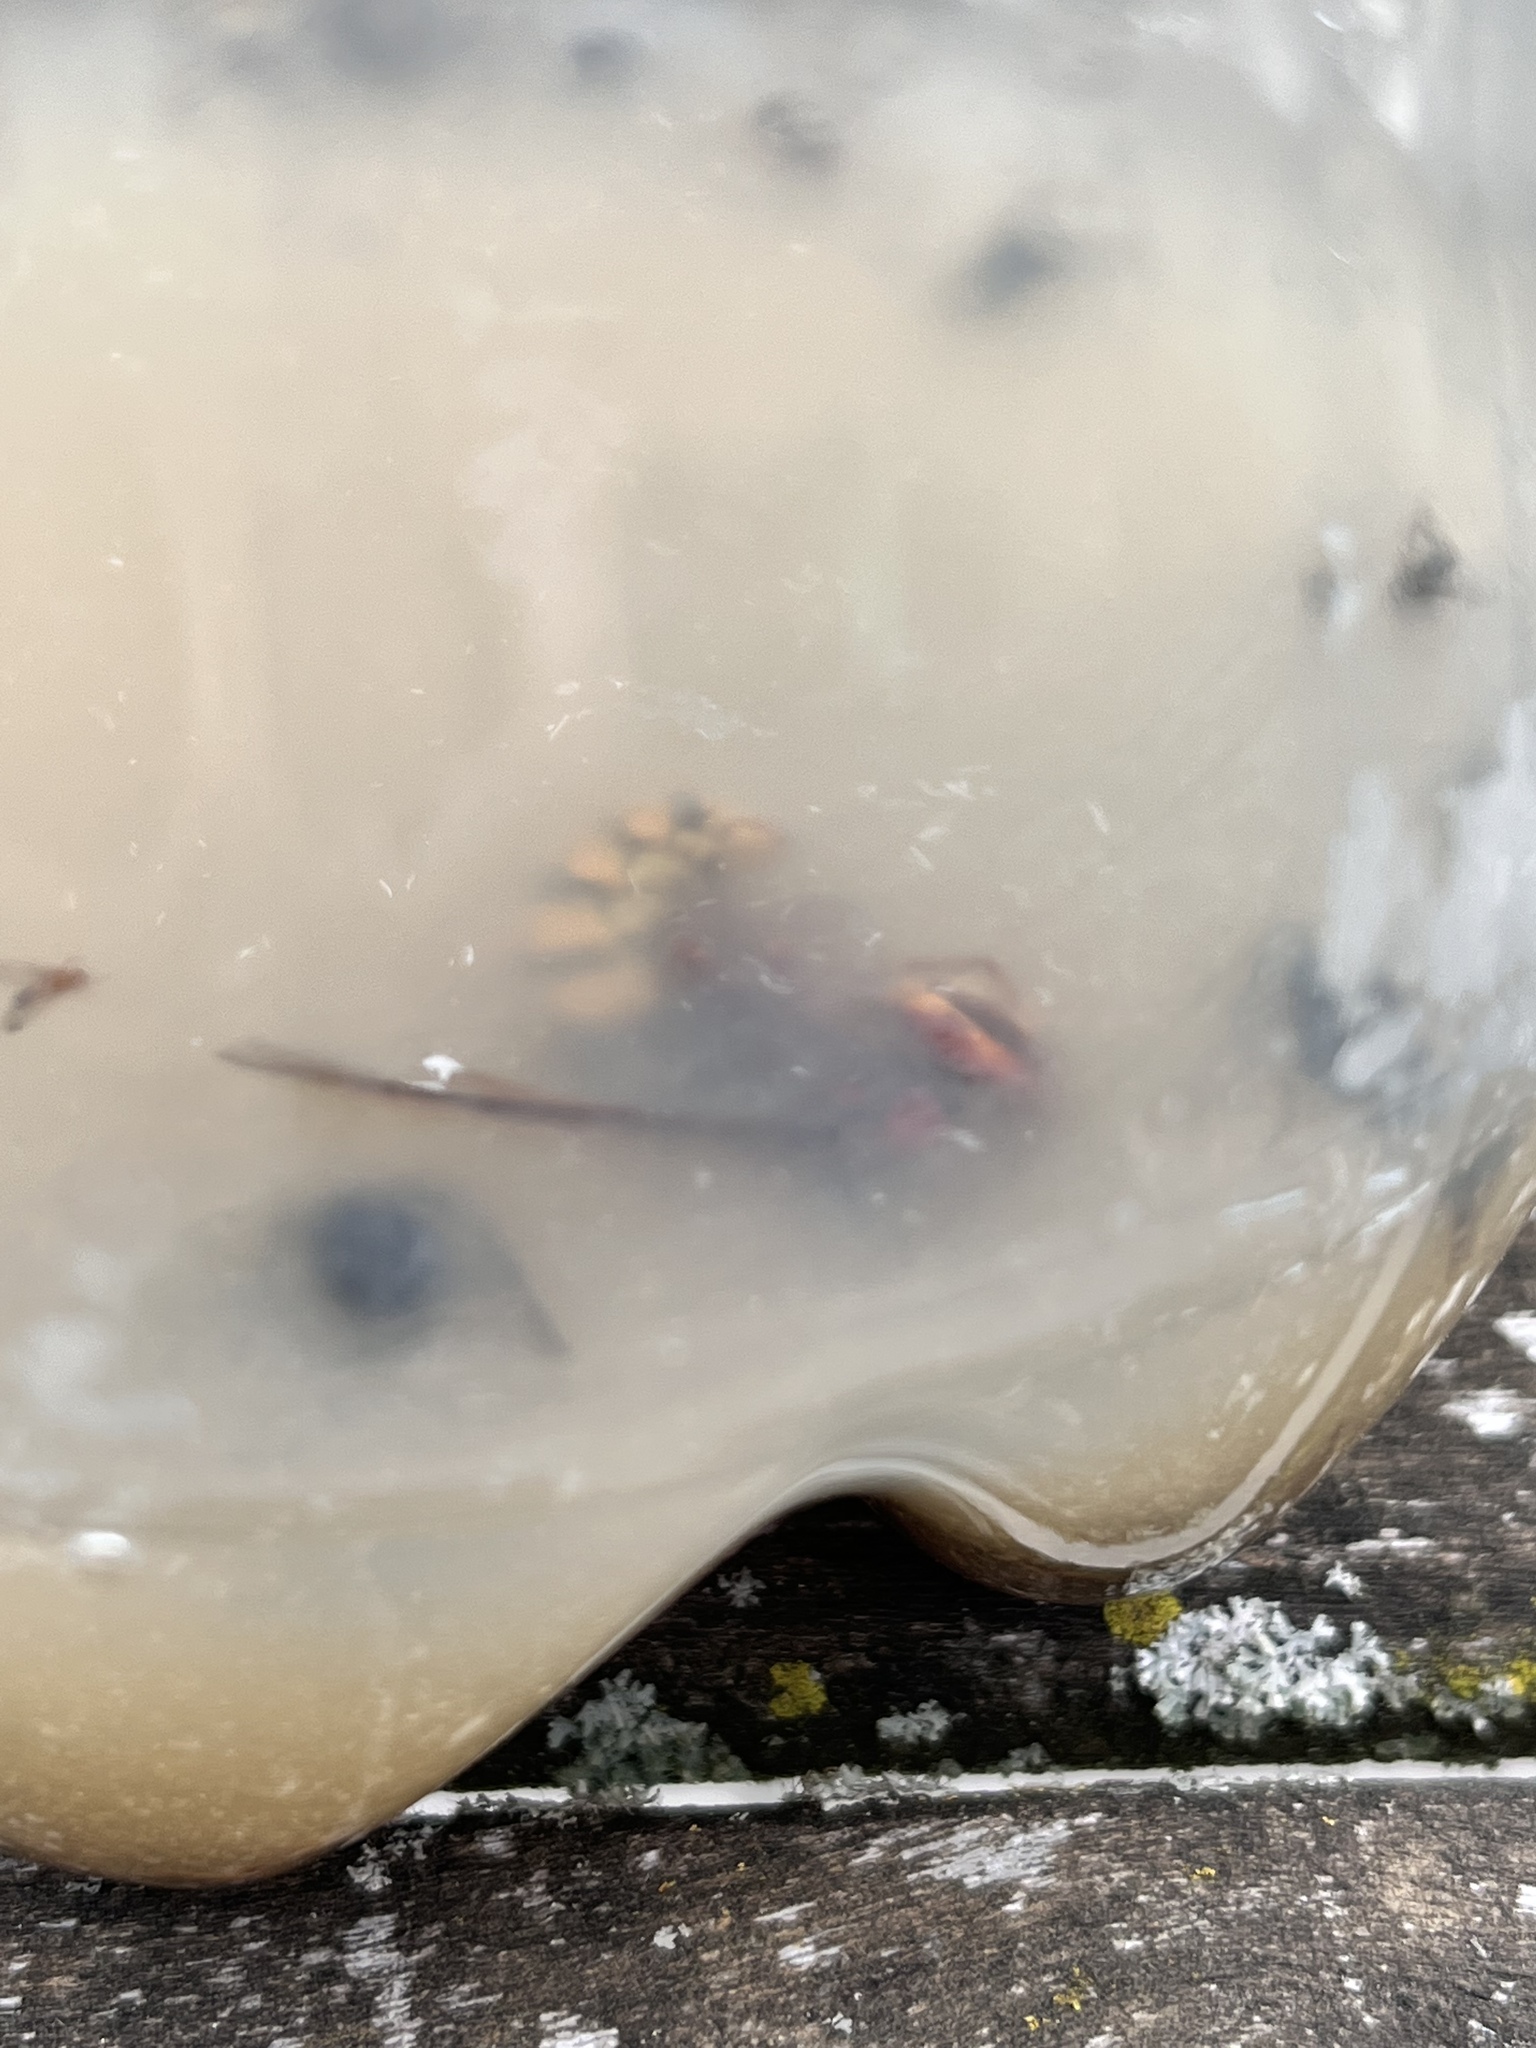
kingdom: Animalia
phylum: Arthropoda
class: Insecta
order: Hymenoptera
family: Vespidae
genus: Vespa
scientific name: Vespa crabro
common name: Hornet
